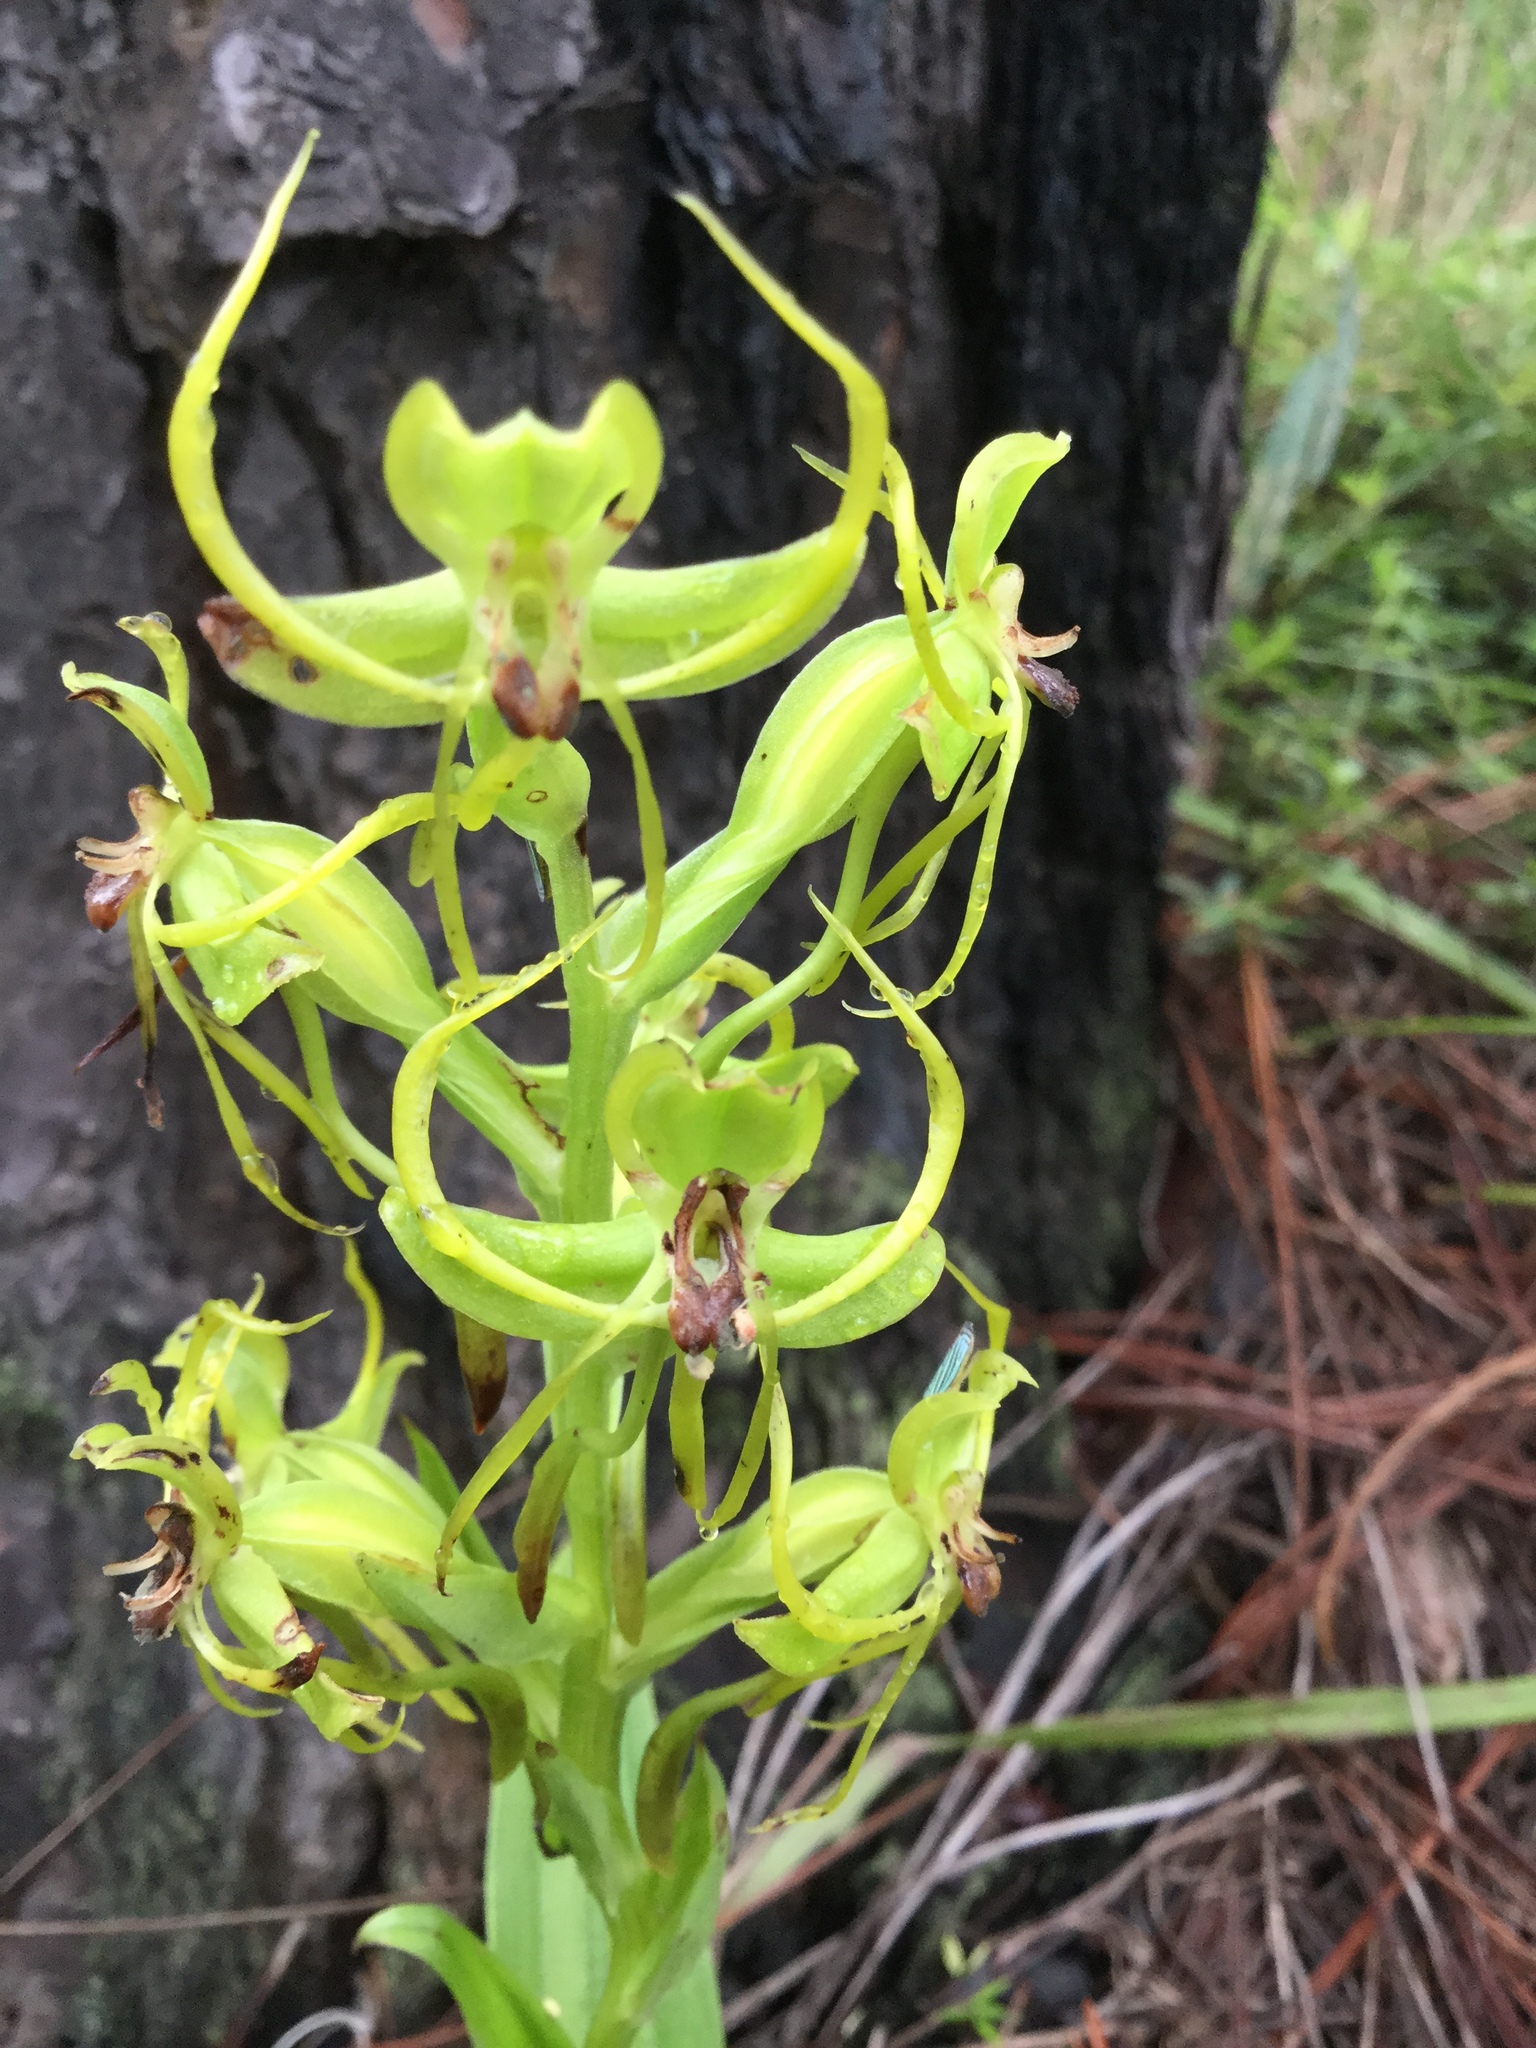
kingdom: Plantae
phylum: Tracheophyta
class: Liliopsida
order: Asparagales
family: Orchidaceae
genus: Habenaria
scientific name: Habenaria jaliscana
